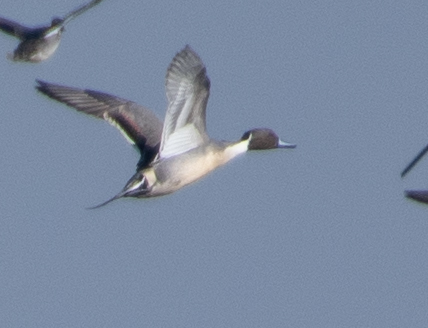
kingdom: Animalia
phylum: Chordata
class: Aves
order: Anseriformes
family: Anatidae
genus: Anas
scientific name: Anas acuta
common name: Northern pintail
